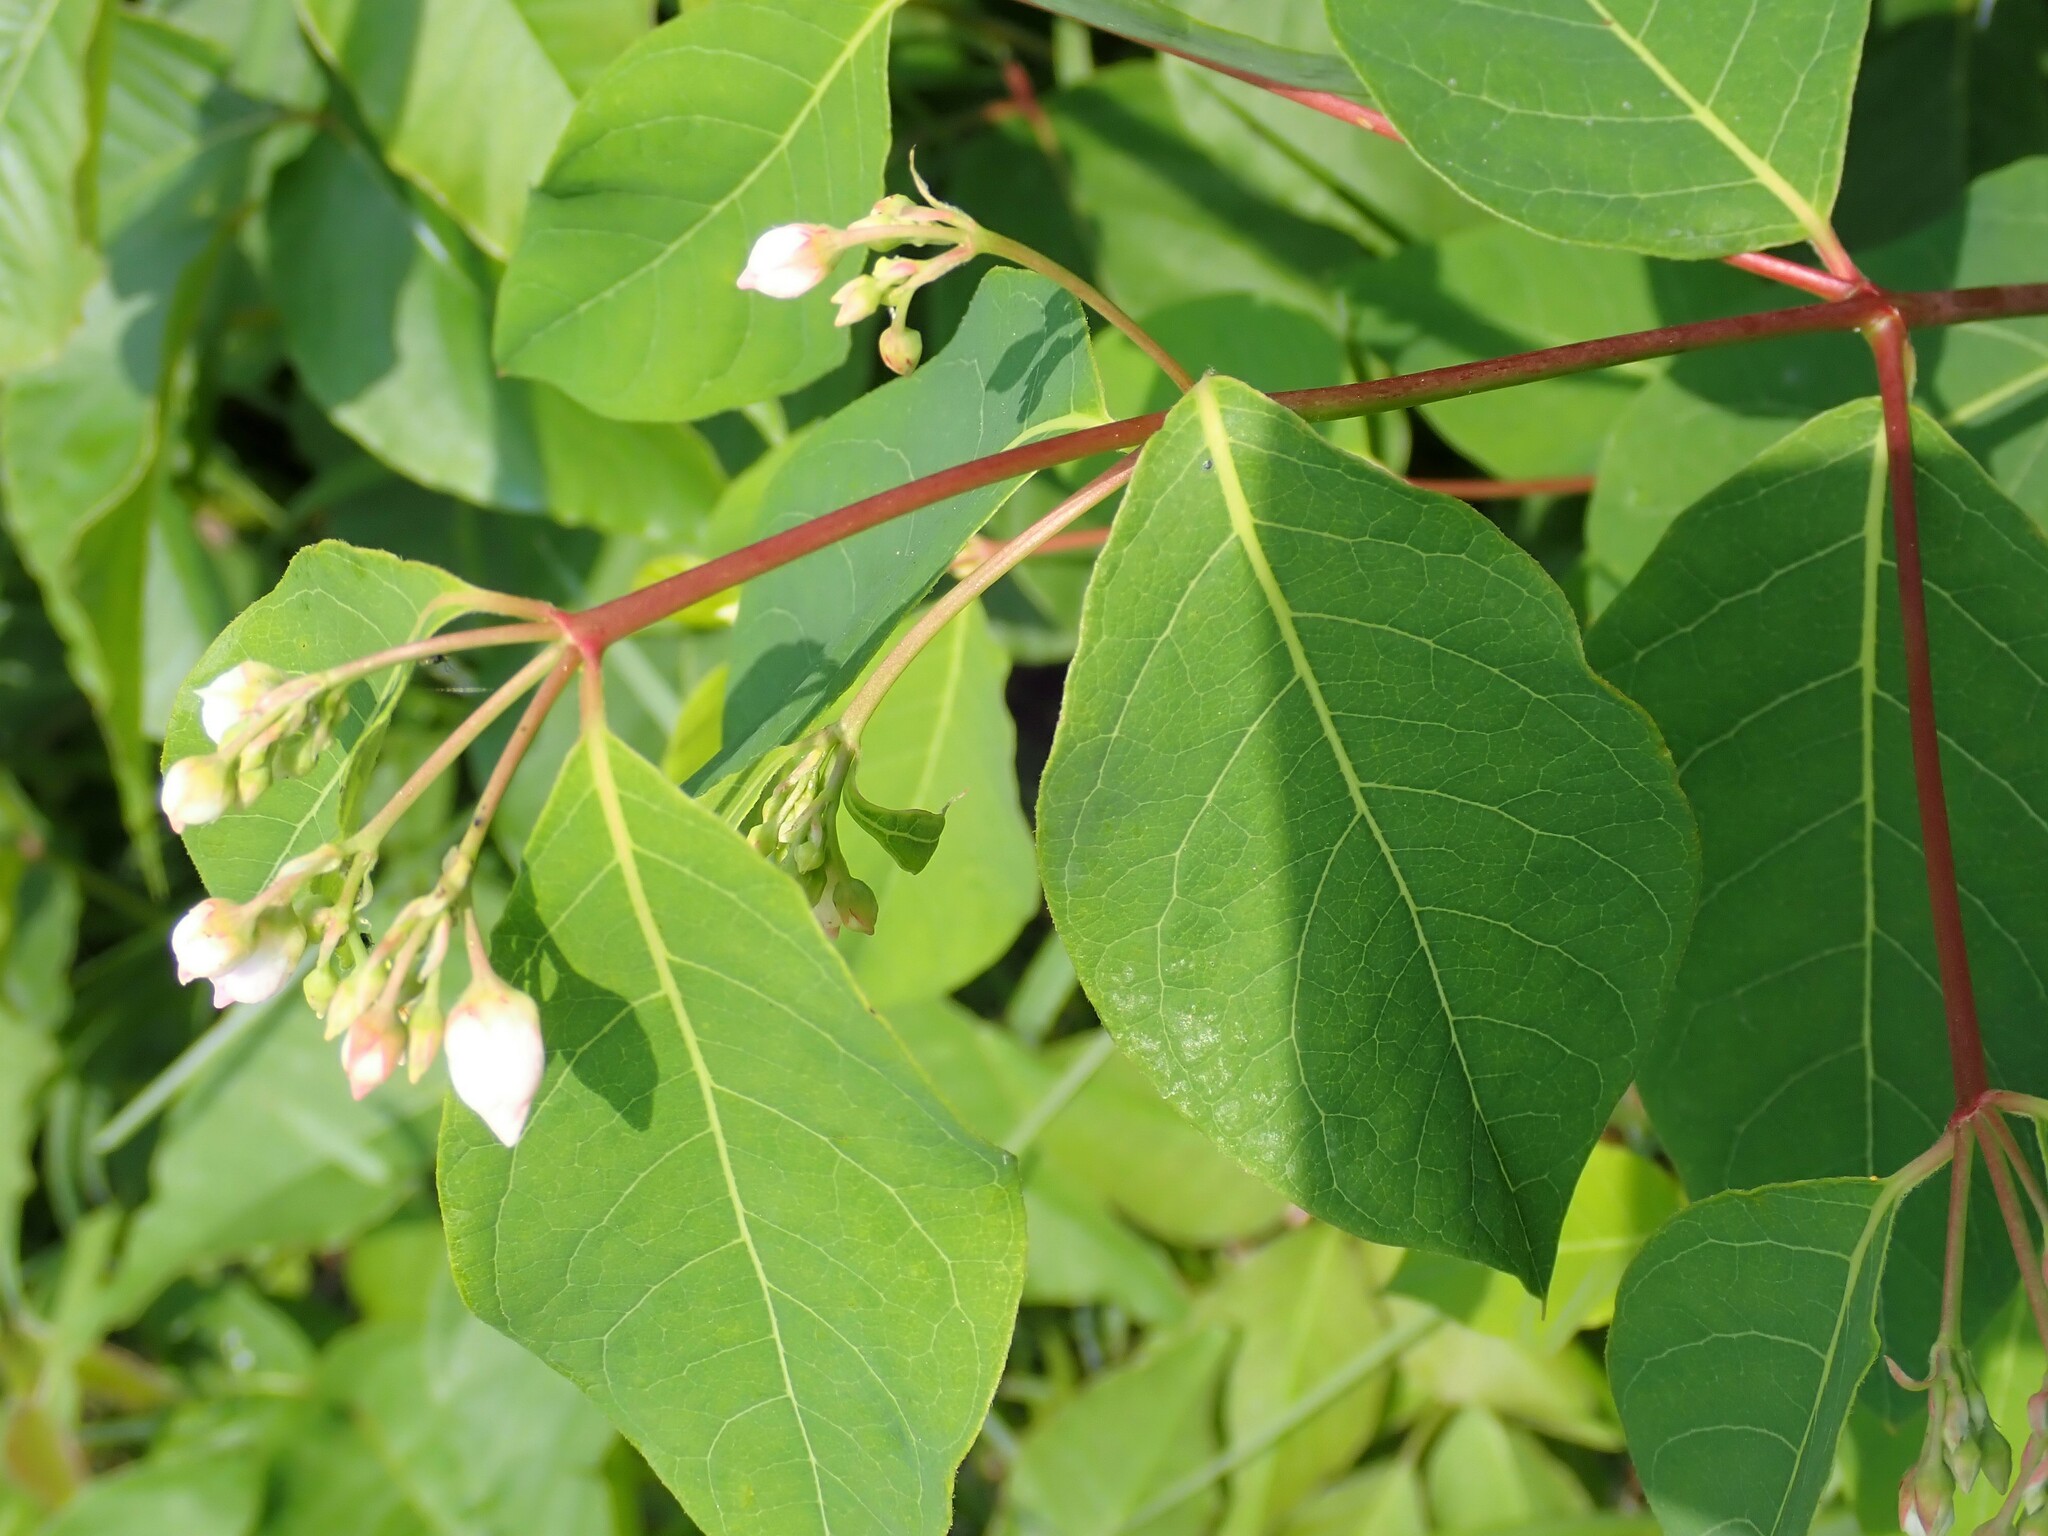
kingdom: Plantae
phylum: Tracheophyta
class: Magnoliopsida
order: Gentianales
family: Apocynaceae
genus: Apocynum
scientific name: Apocynum androsaemifolium
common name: Spreading dogbane
